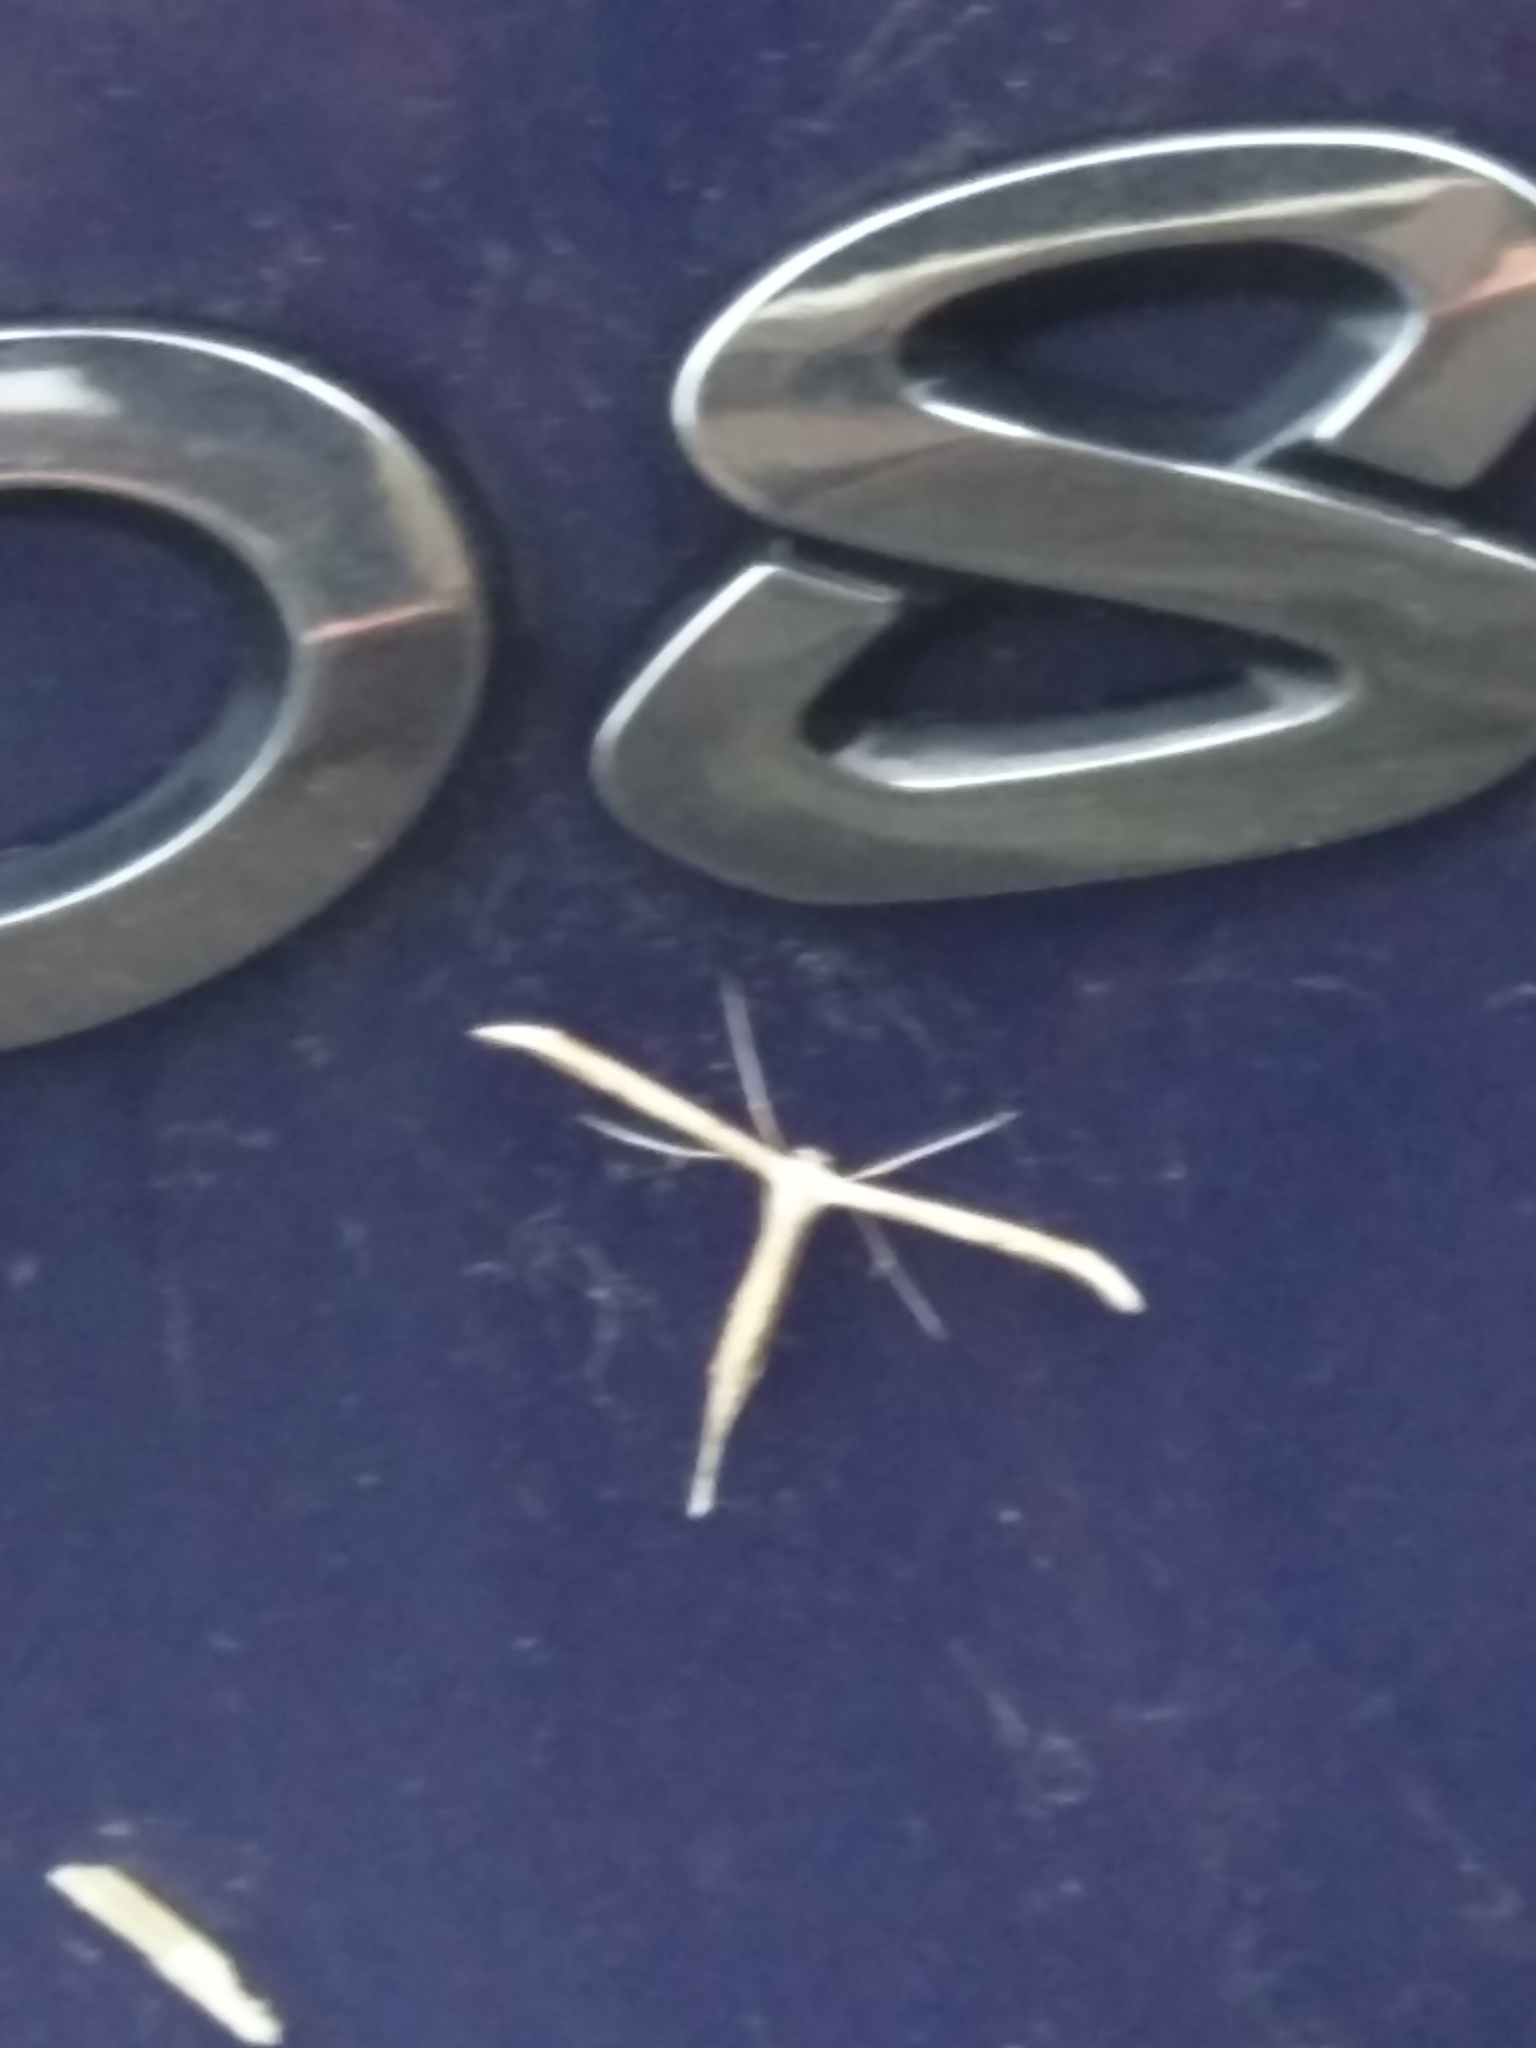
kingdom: Animalia
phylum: Arthropoda
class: Insecta
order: Lepidoptera
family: Pterophoridae
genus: Emmelina
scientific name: Emmelina monodactyla
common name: Common plume
